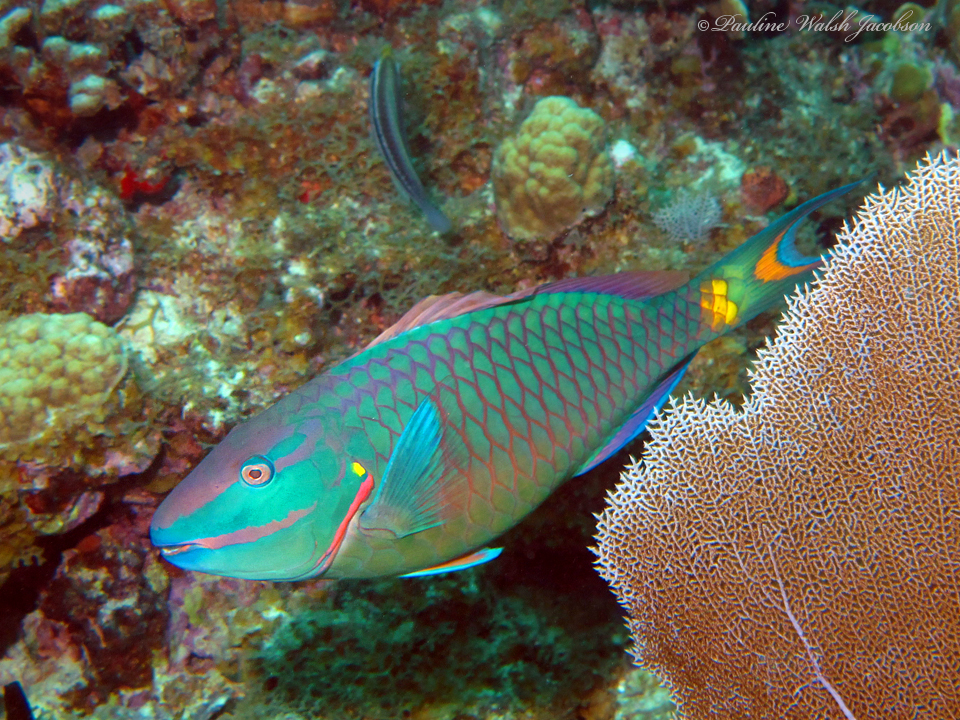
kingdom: Animalia
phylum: Chordata
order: Perciformes
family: Scaridae
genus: Sparisoma
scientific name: Sparisoma viride
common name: Stoplight parrotfish
